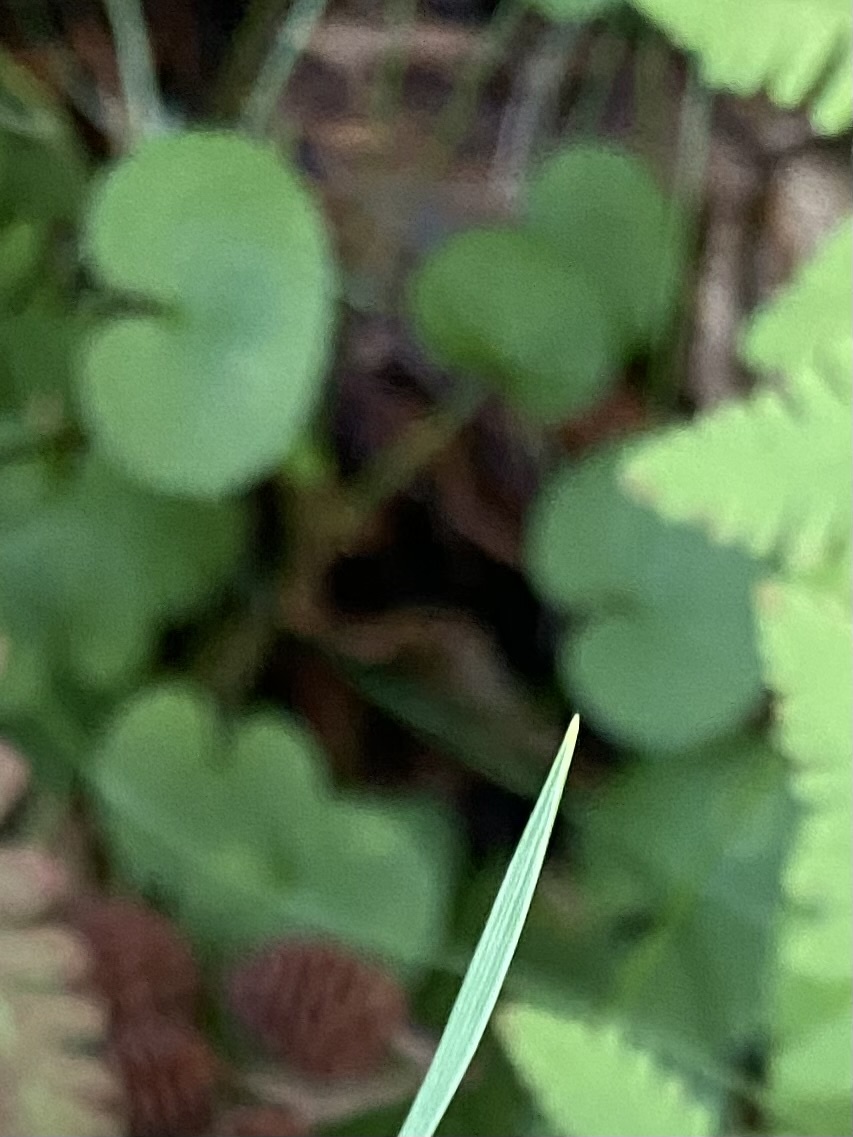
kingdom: Plantae
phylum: Tracheophyta
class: Magnoliopsida
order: Malpighiales
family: Violaceae
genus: Viola
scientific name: Viola biflora
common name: Alpine yellow violet
